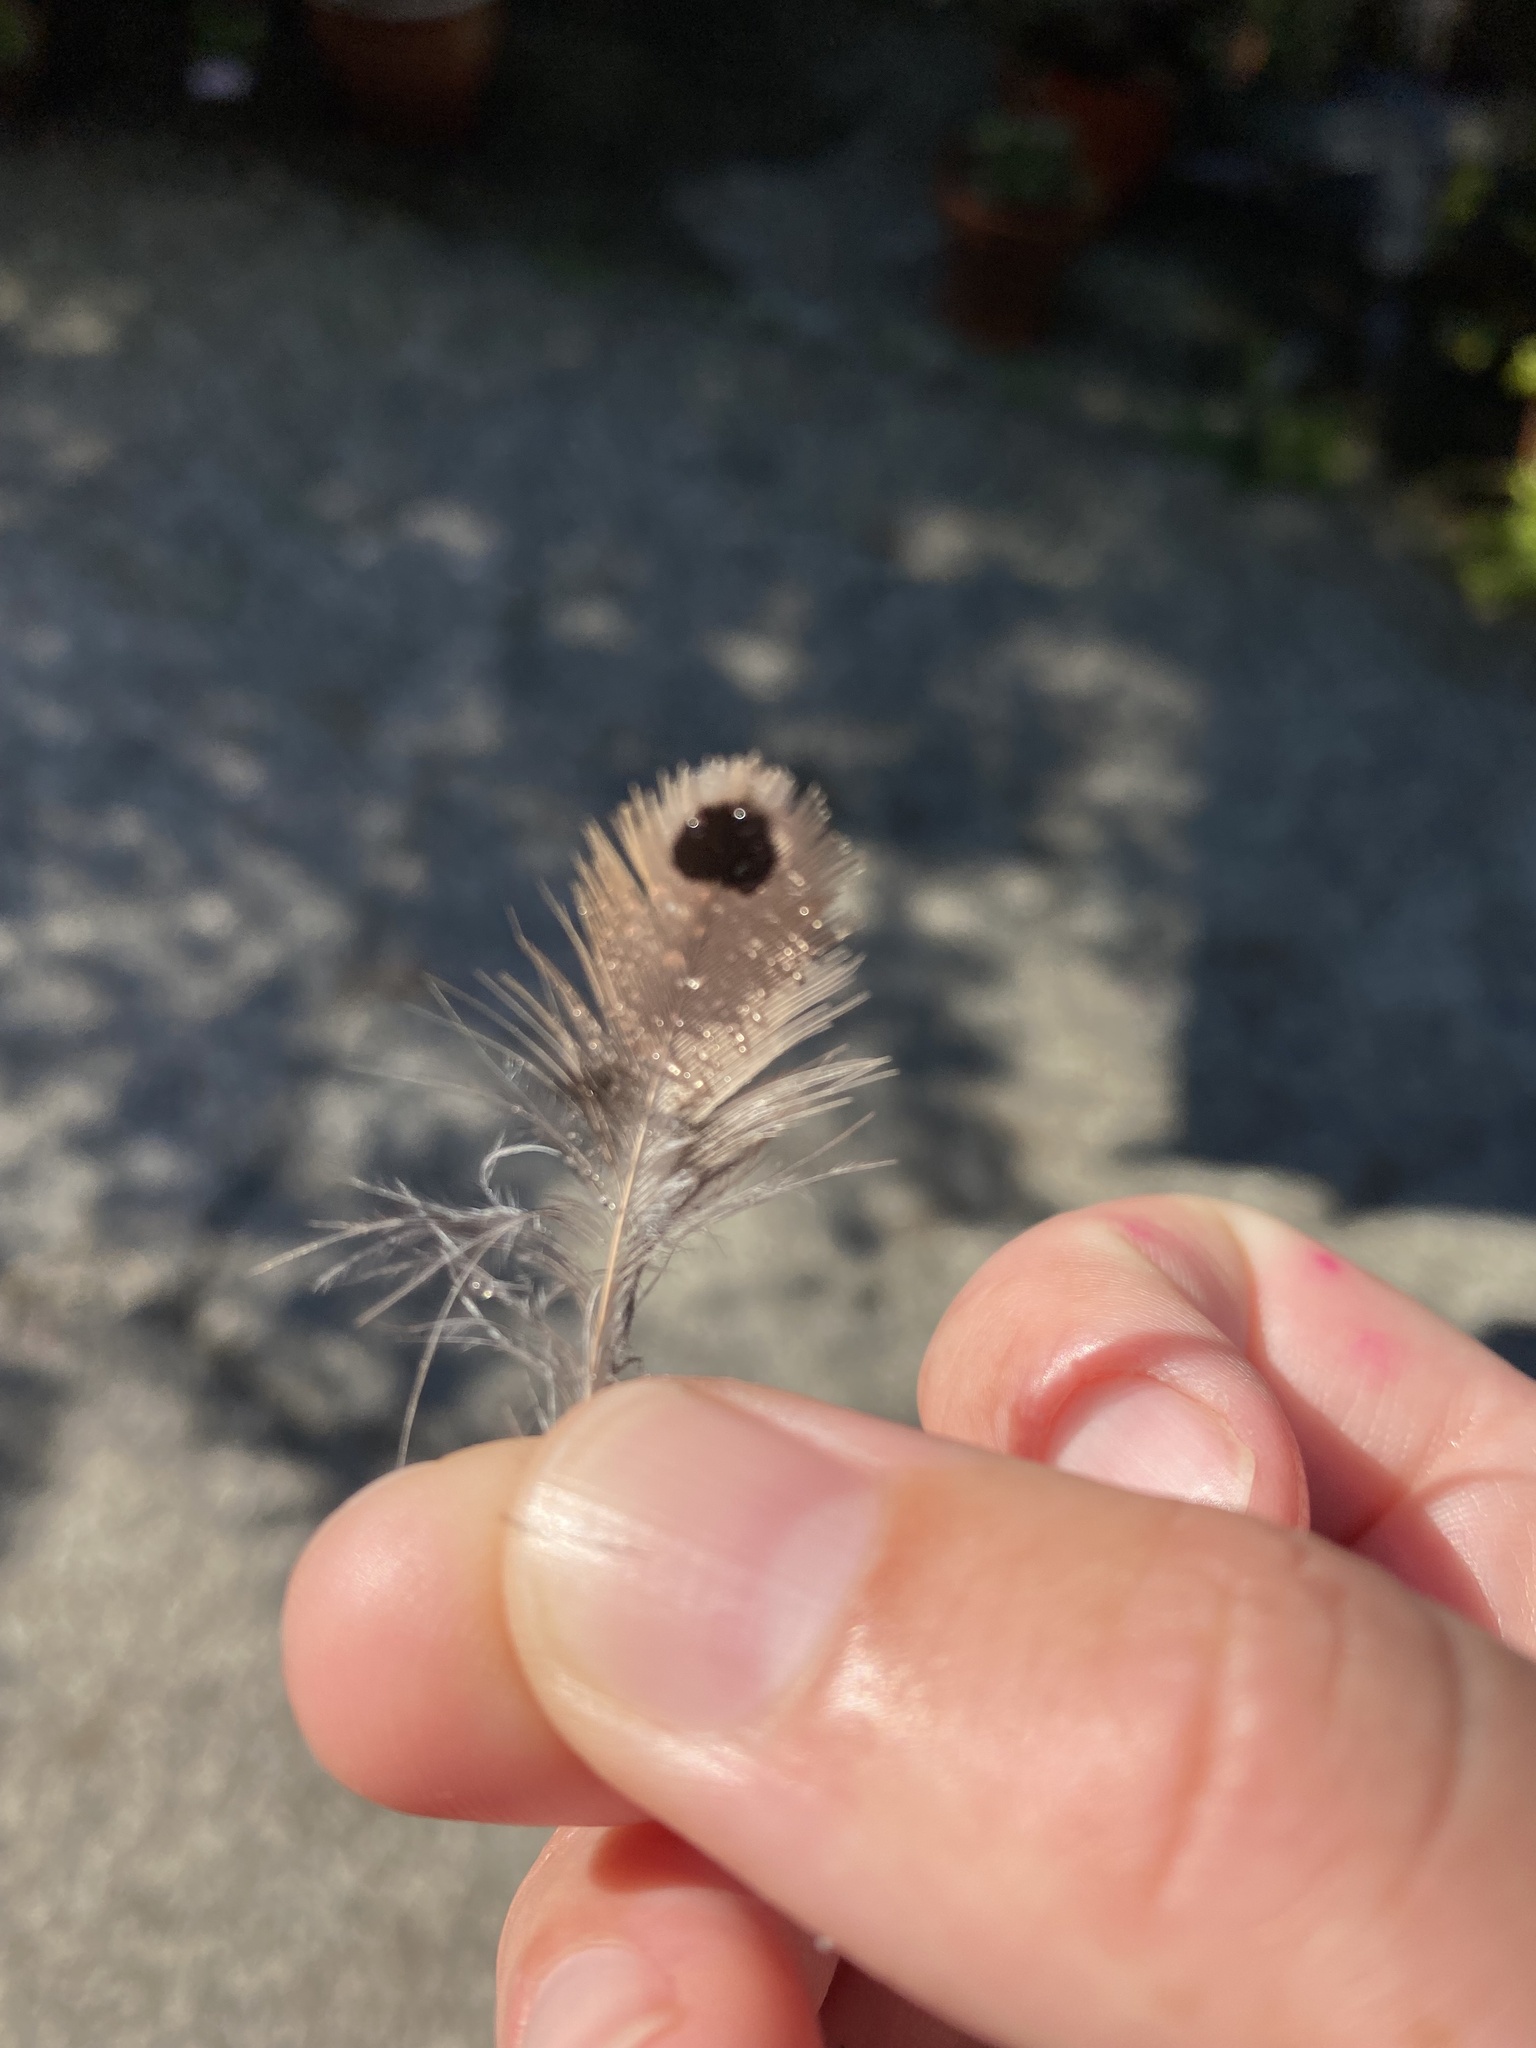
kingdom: Animalia
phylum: Chordata
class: Aves
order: Piciformes
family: Picidae
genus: Colaptes
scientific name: Colaptes auratus
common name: Northern flicker
